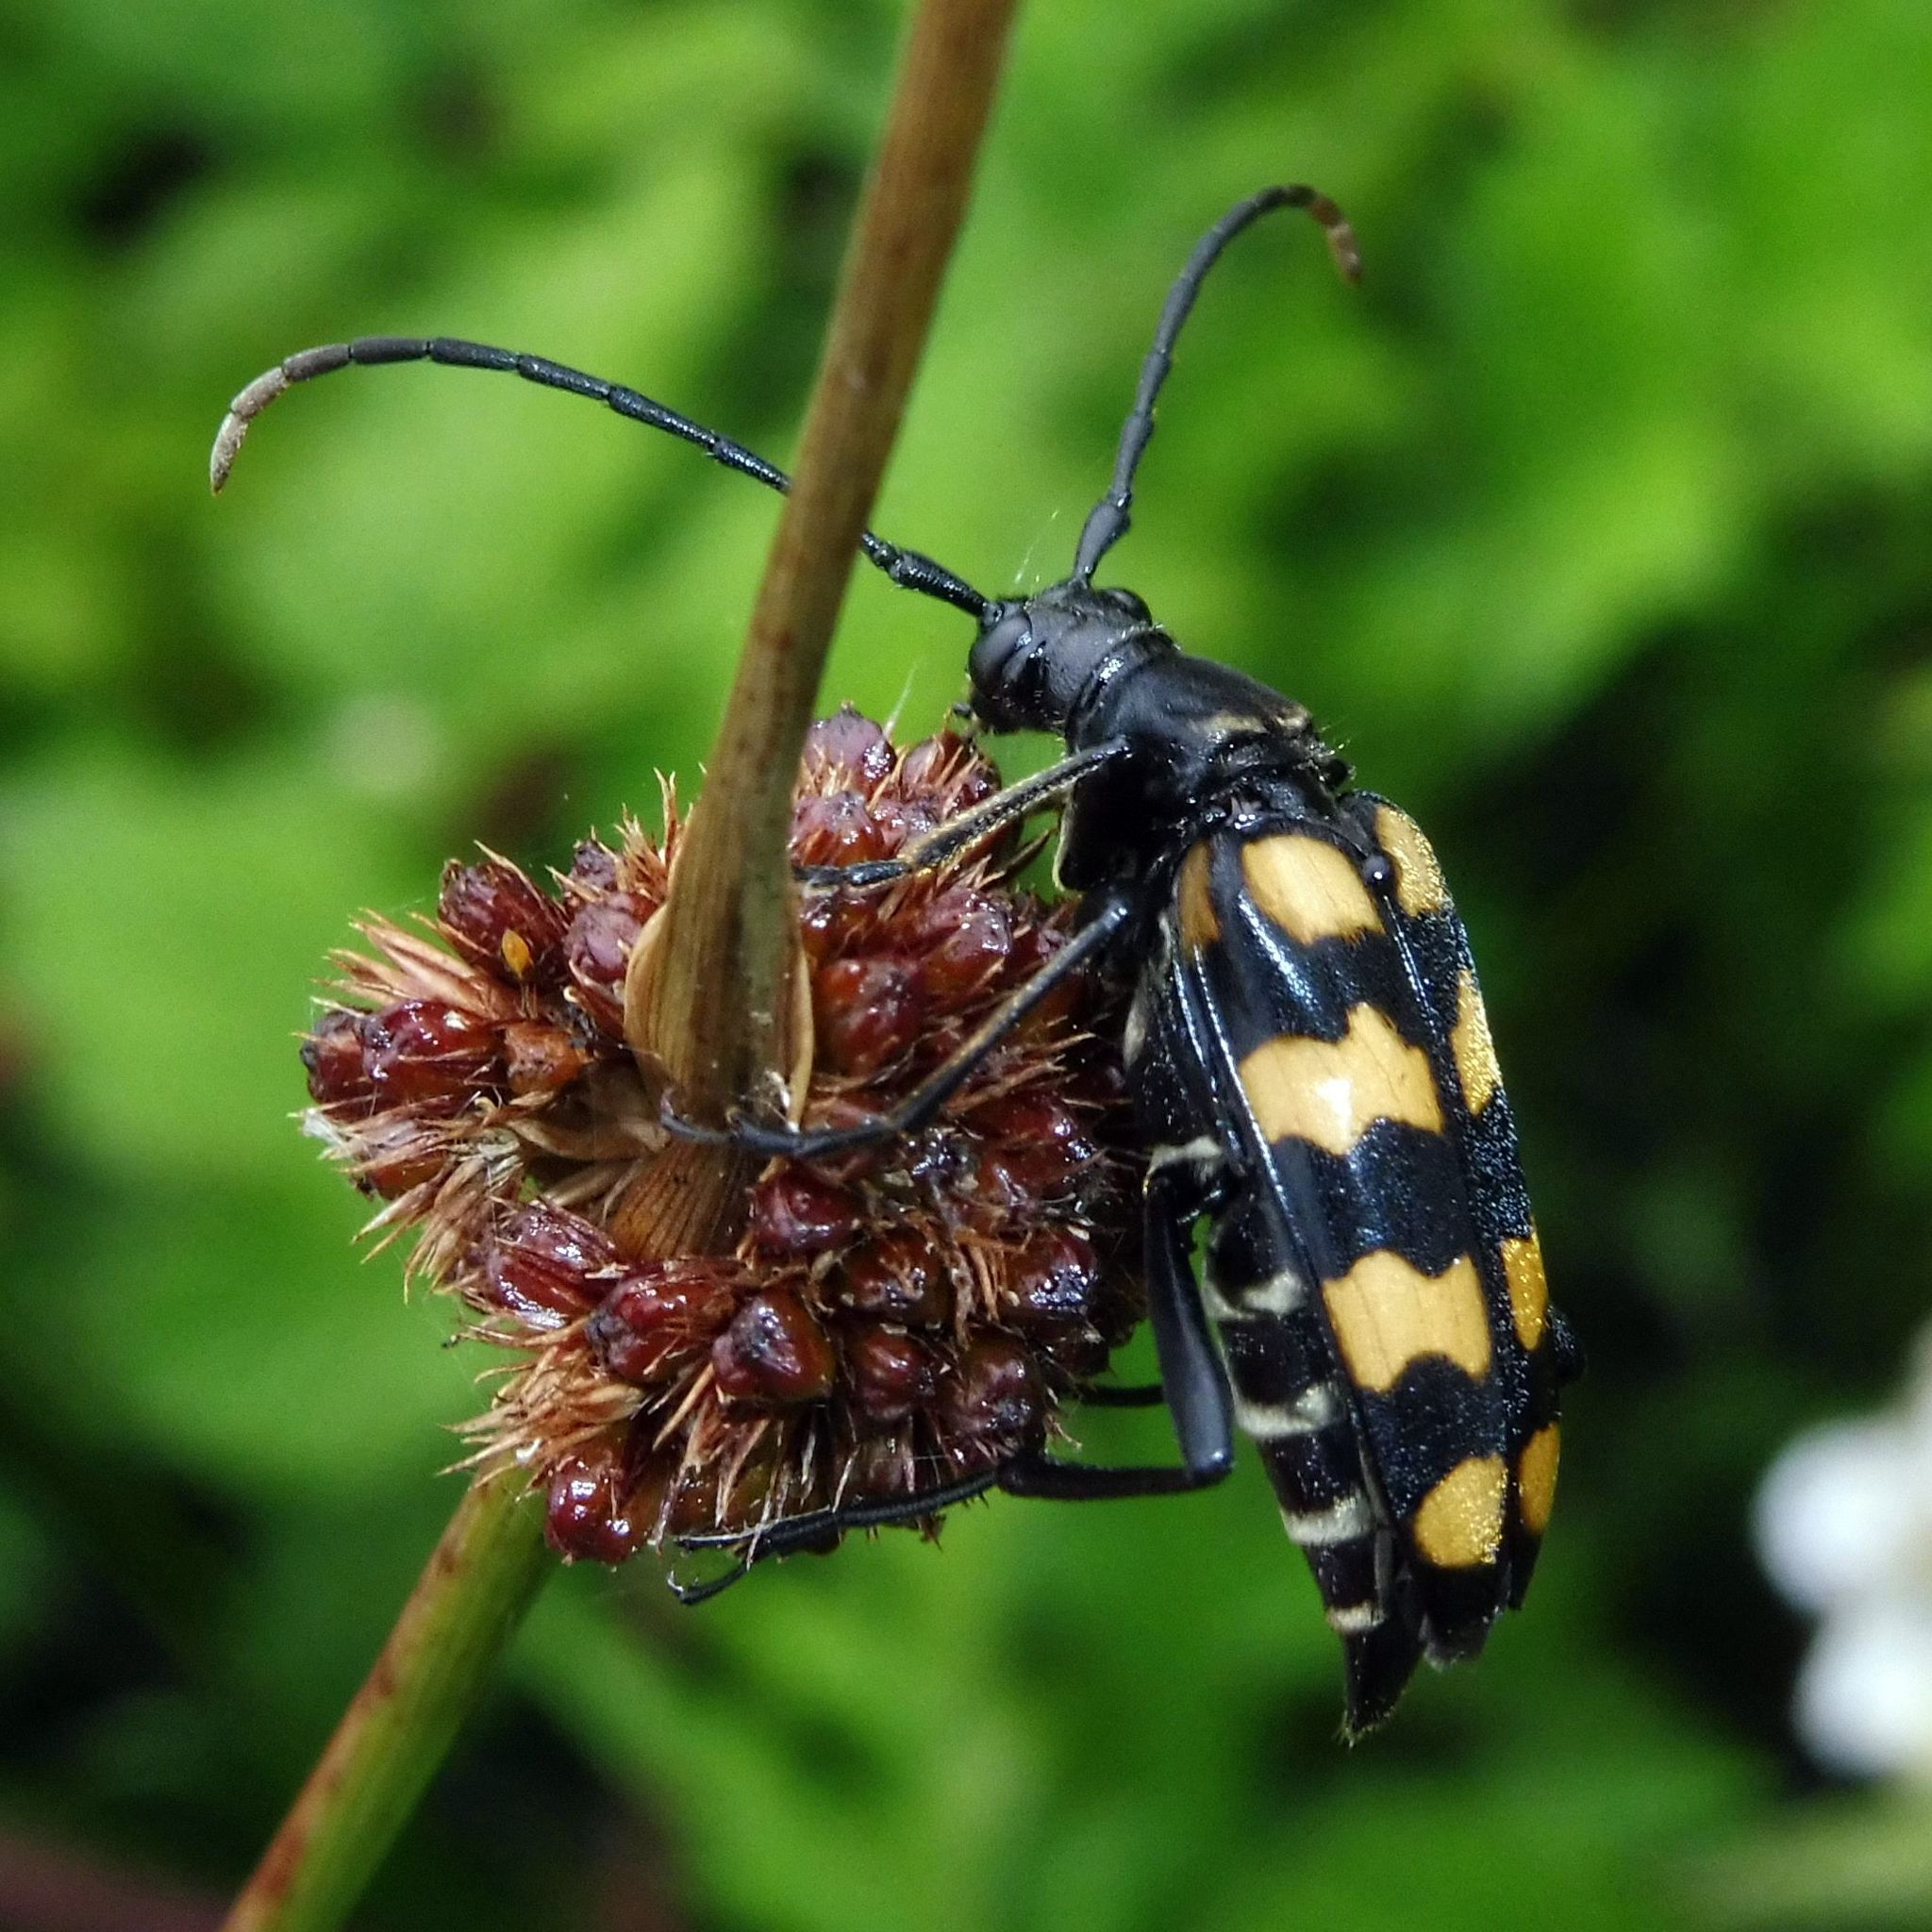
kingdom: Animalia
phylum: Arthropoda
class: Insecta
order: Coleoptera
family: Cerambycidae
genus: Leptura
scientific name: Leptura quadrifasciata
